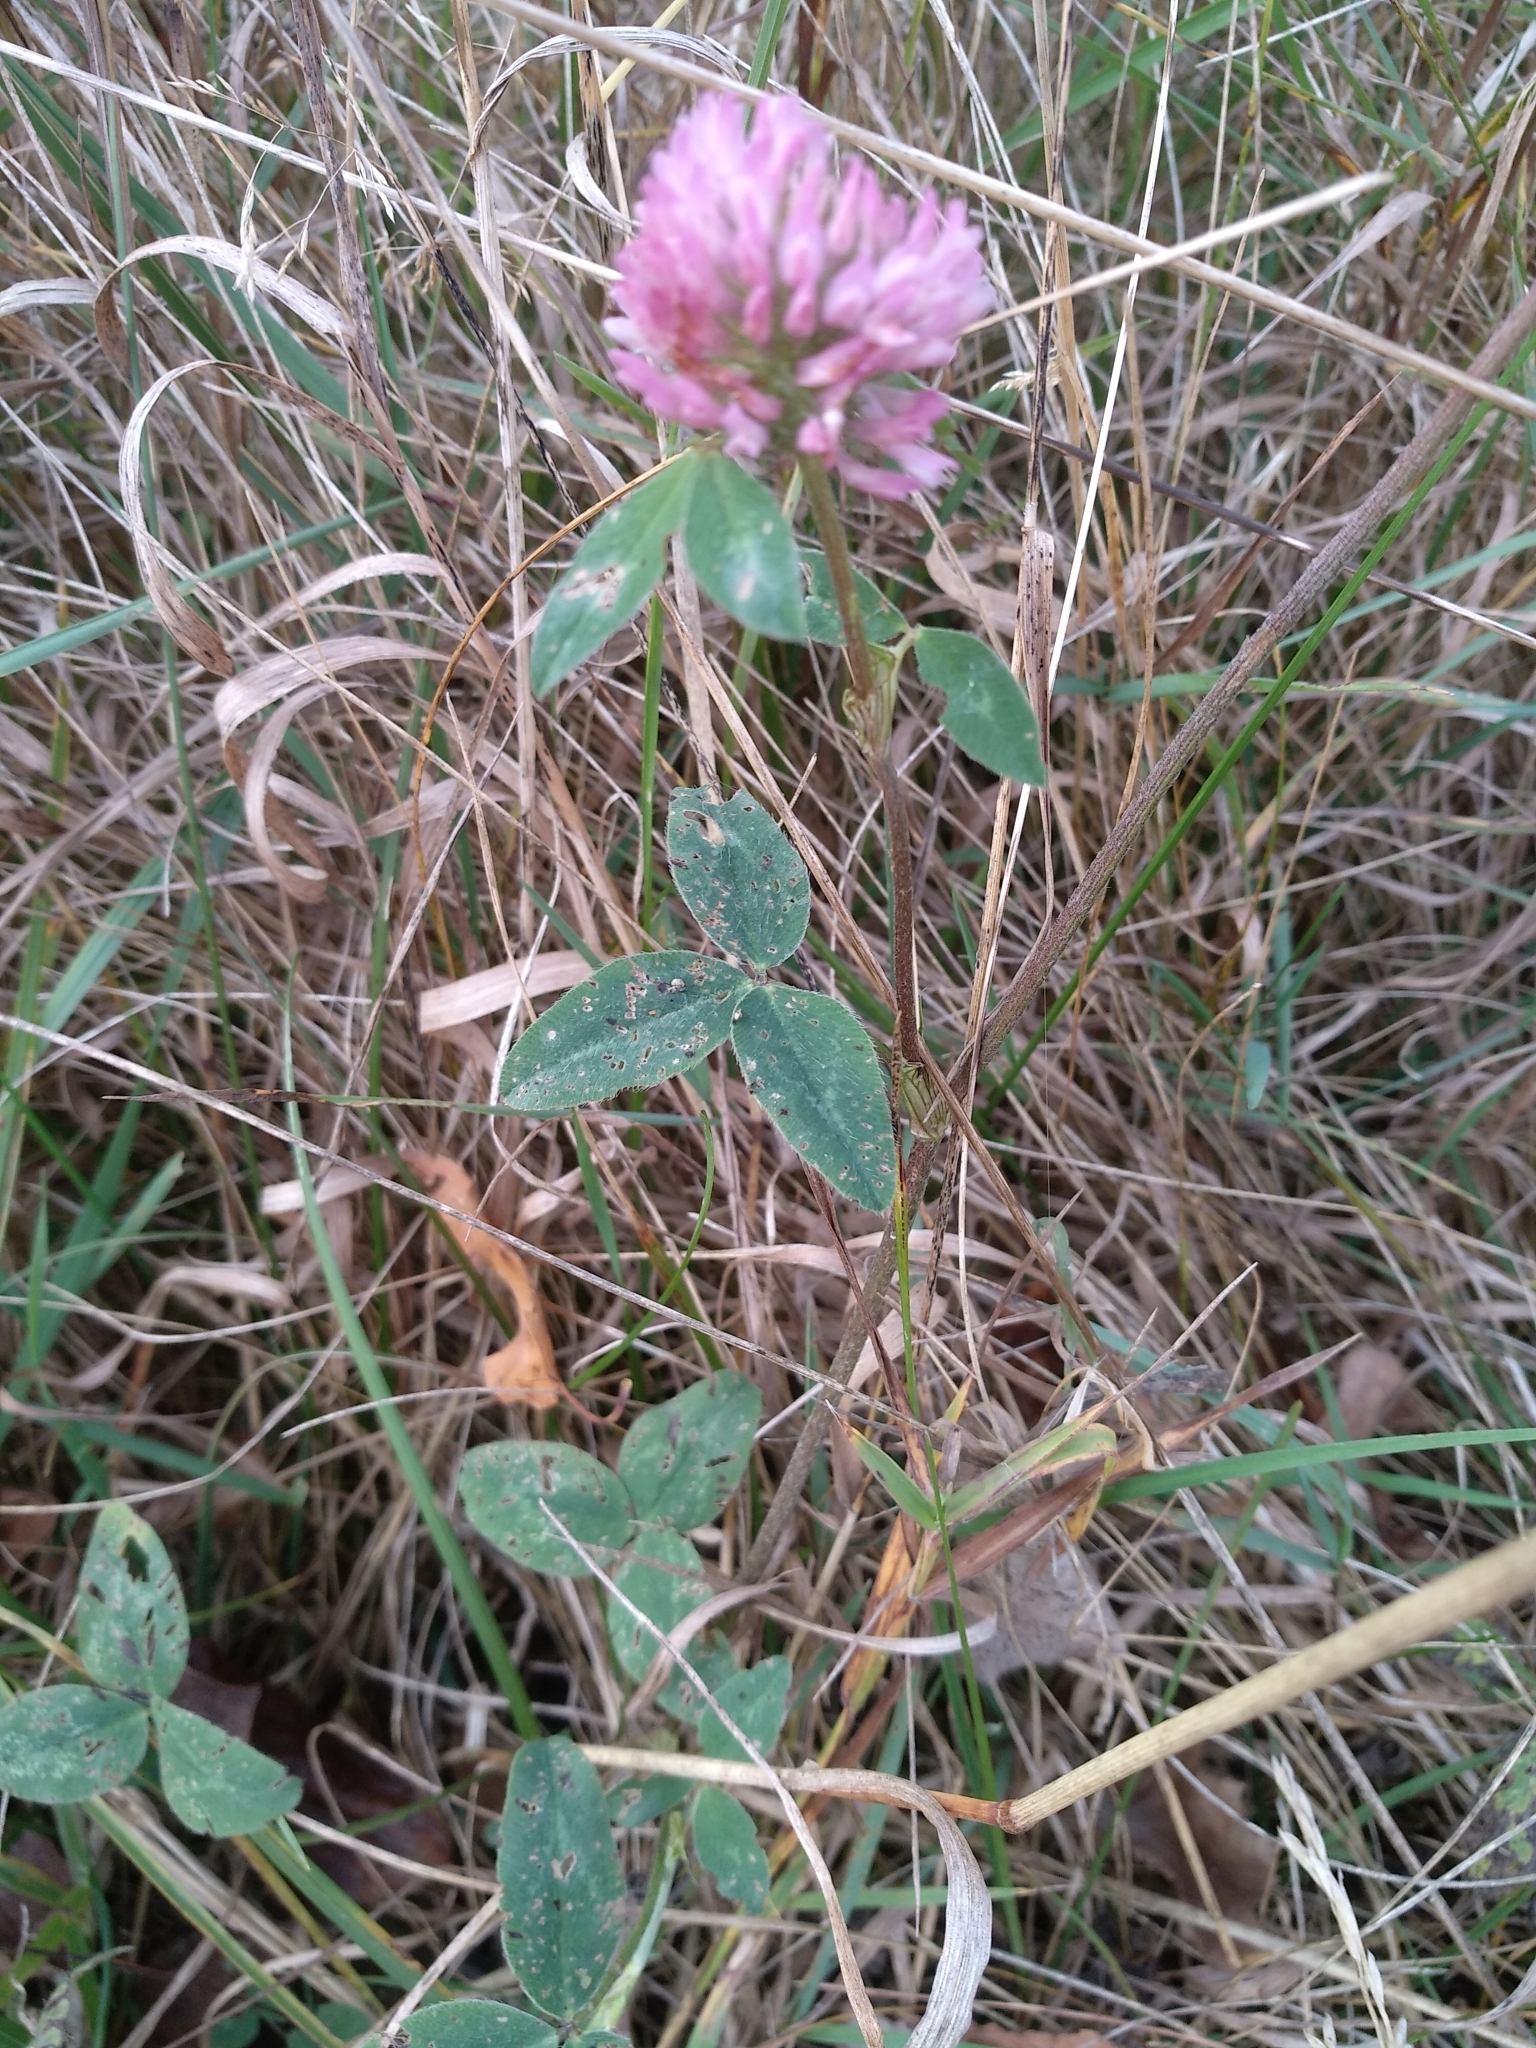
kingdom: Plantae
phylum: Tracheophyta
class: Magnoliopsida
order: Fabales
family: Fabaceae
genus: Trifolium
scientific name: Trifolium pratense
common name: Red clover
